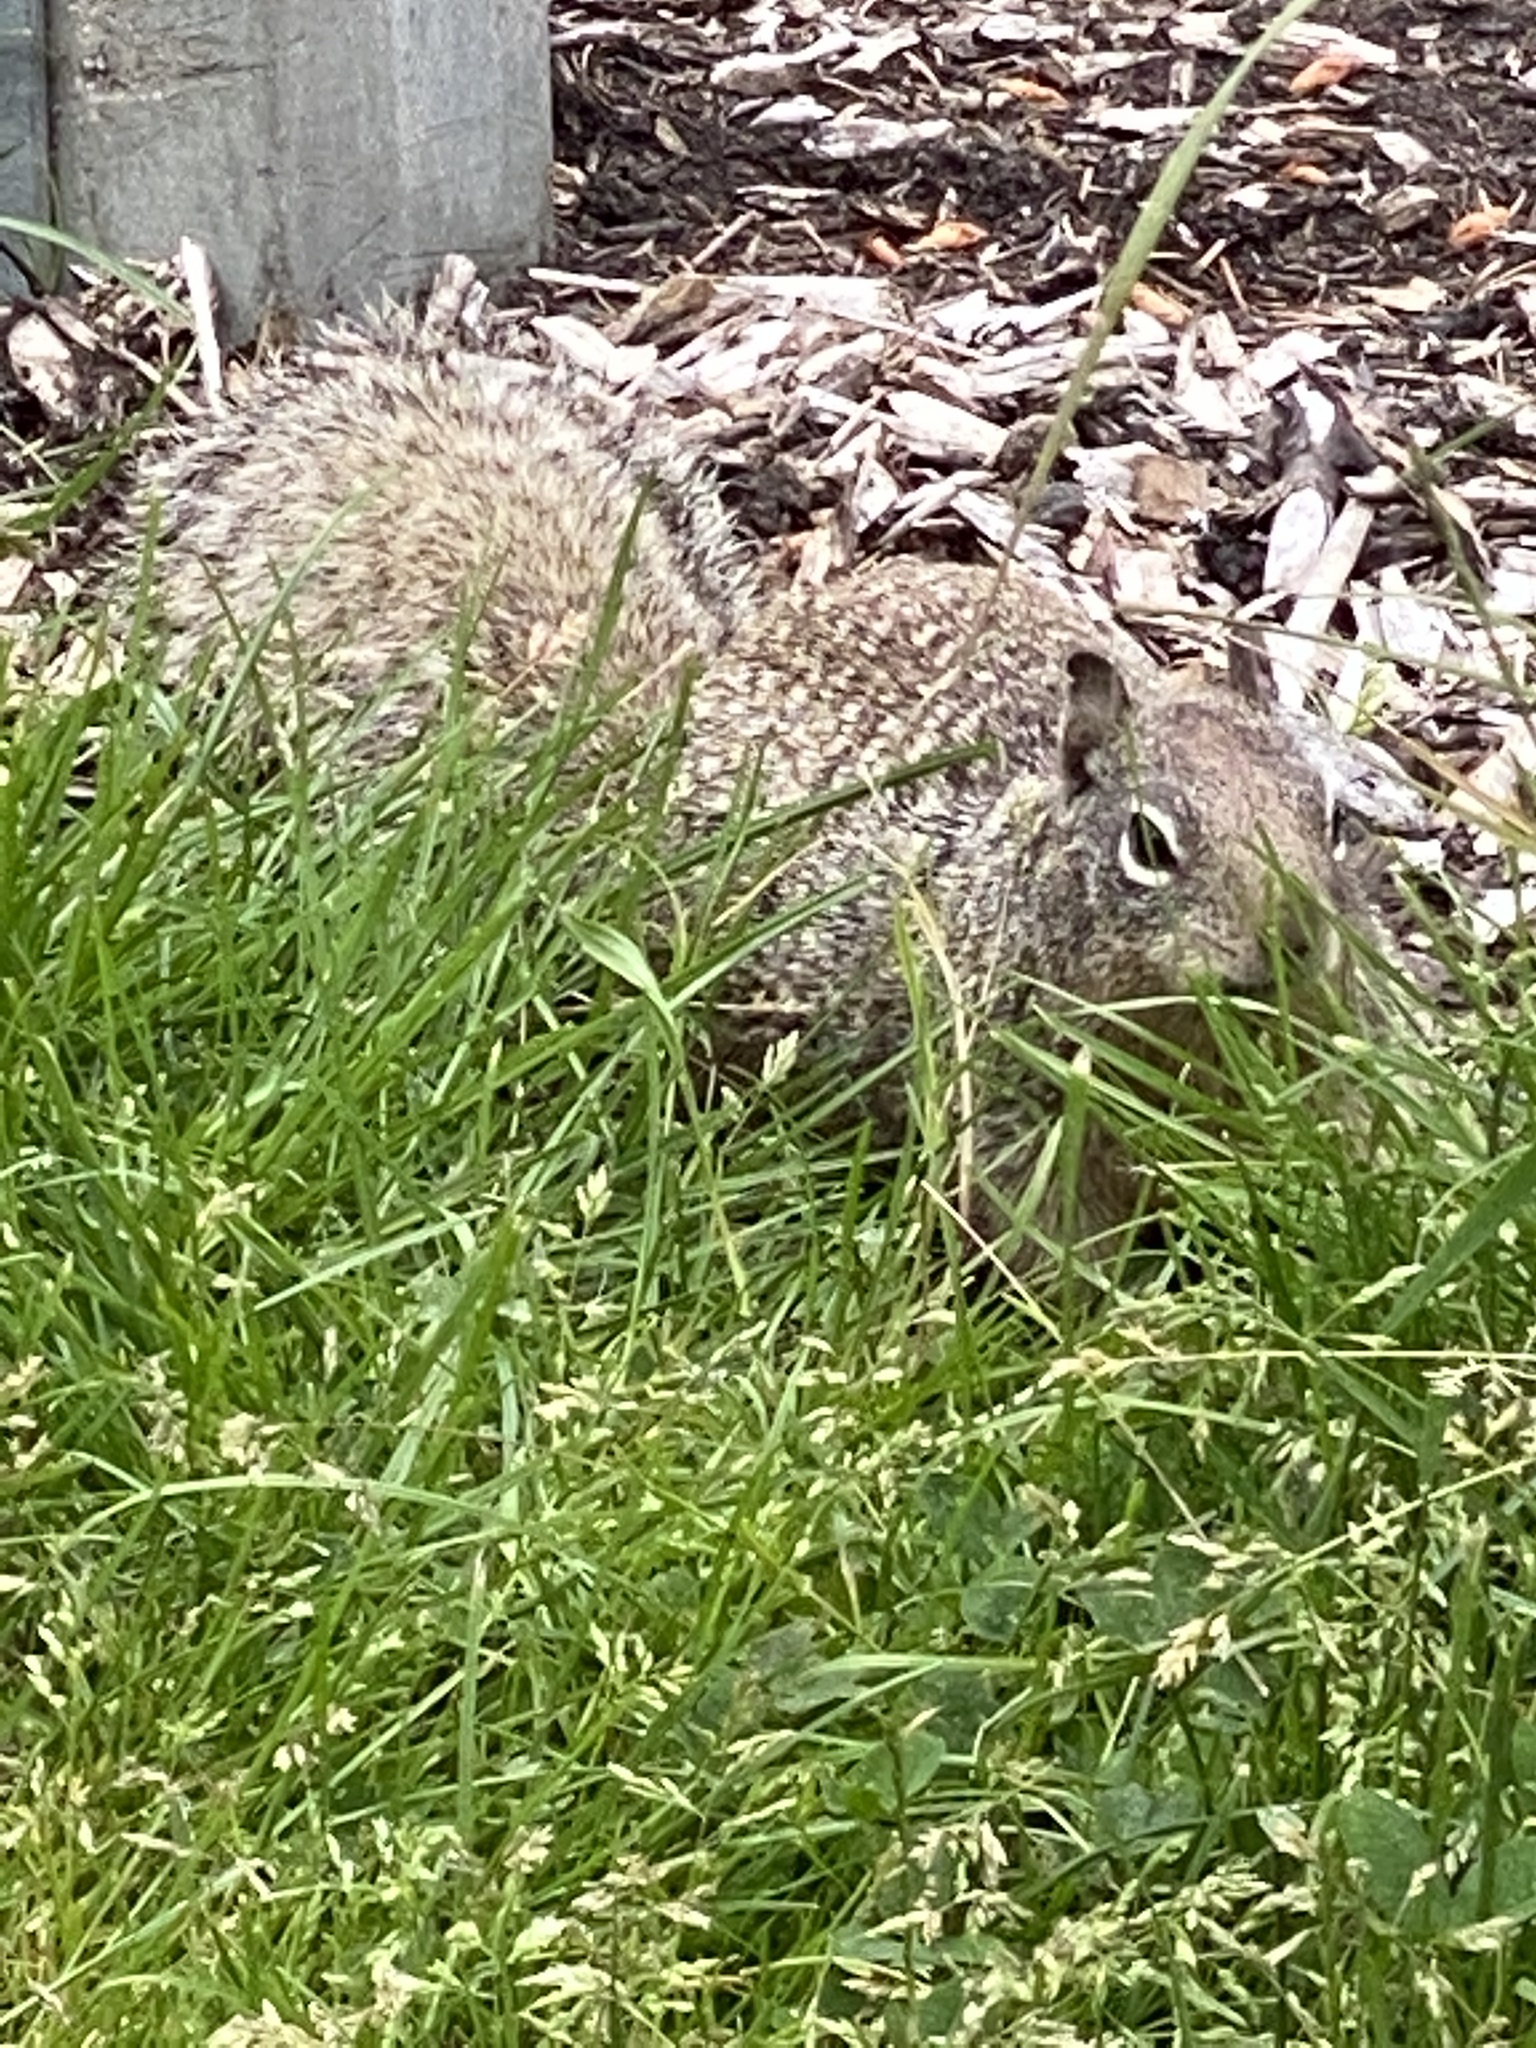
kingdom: Animalia
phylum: Chordata
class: Mammalia
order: Rodentia
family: Sciuridae
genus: Otospermophilus
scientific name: Otospermophilus beecheyi
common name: California ground squirrel
